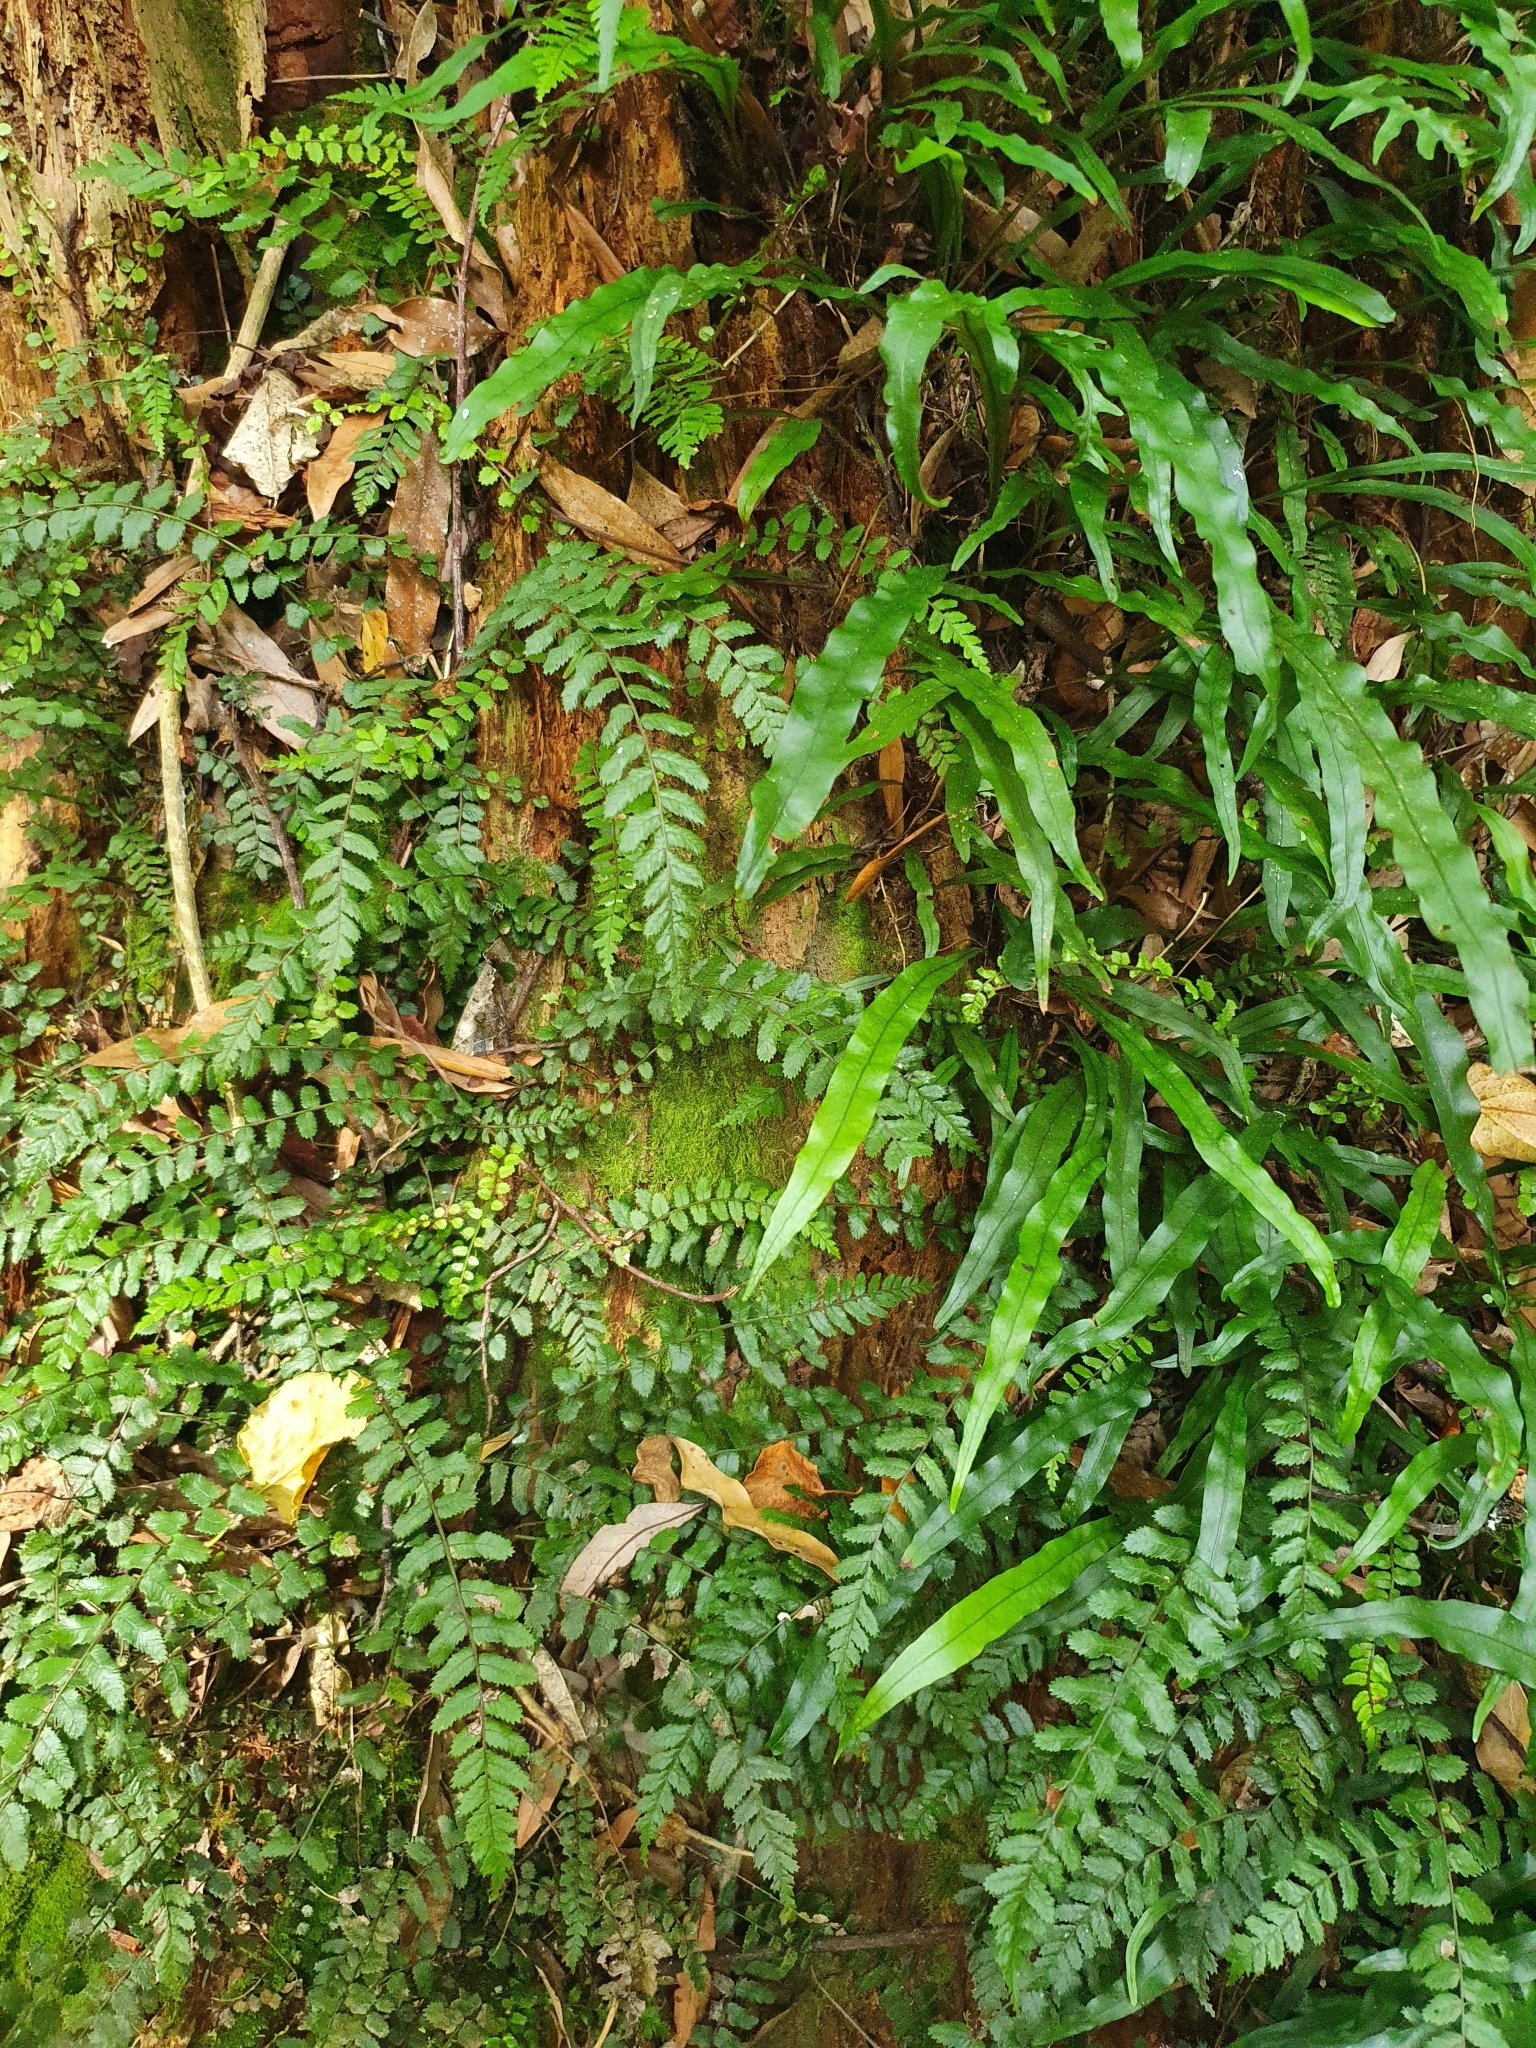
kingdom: Plantae
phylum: Tracheophyta
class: Polypodiopsida
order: Polypodiales
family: Blechnaceae
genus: Icarus
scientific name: Icarus filiformis
